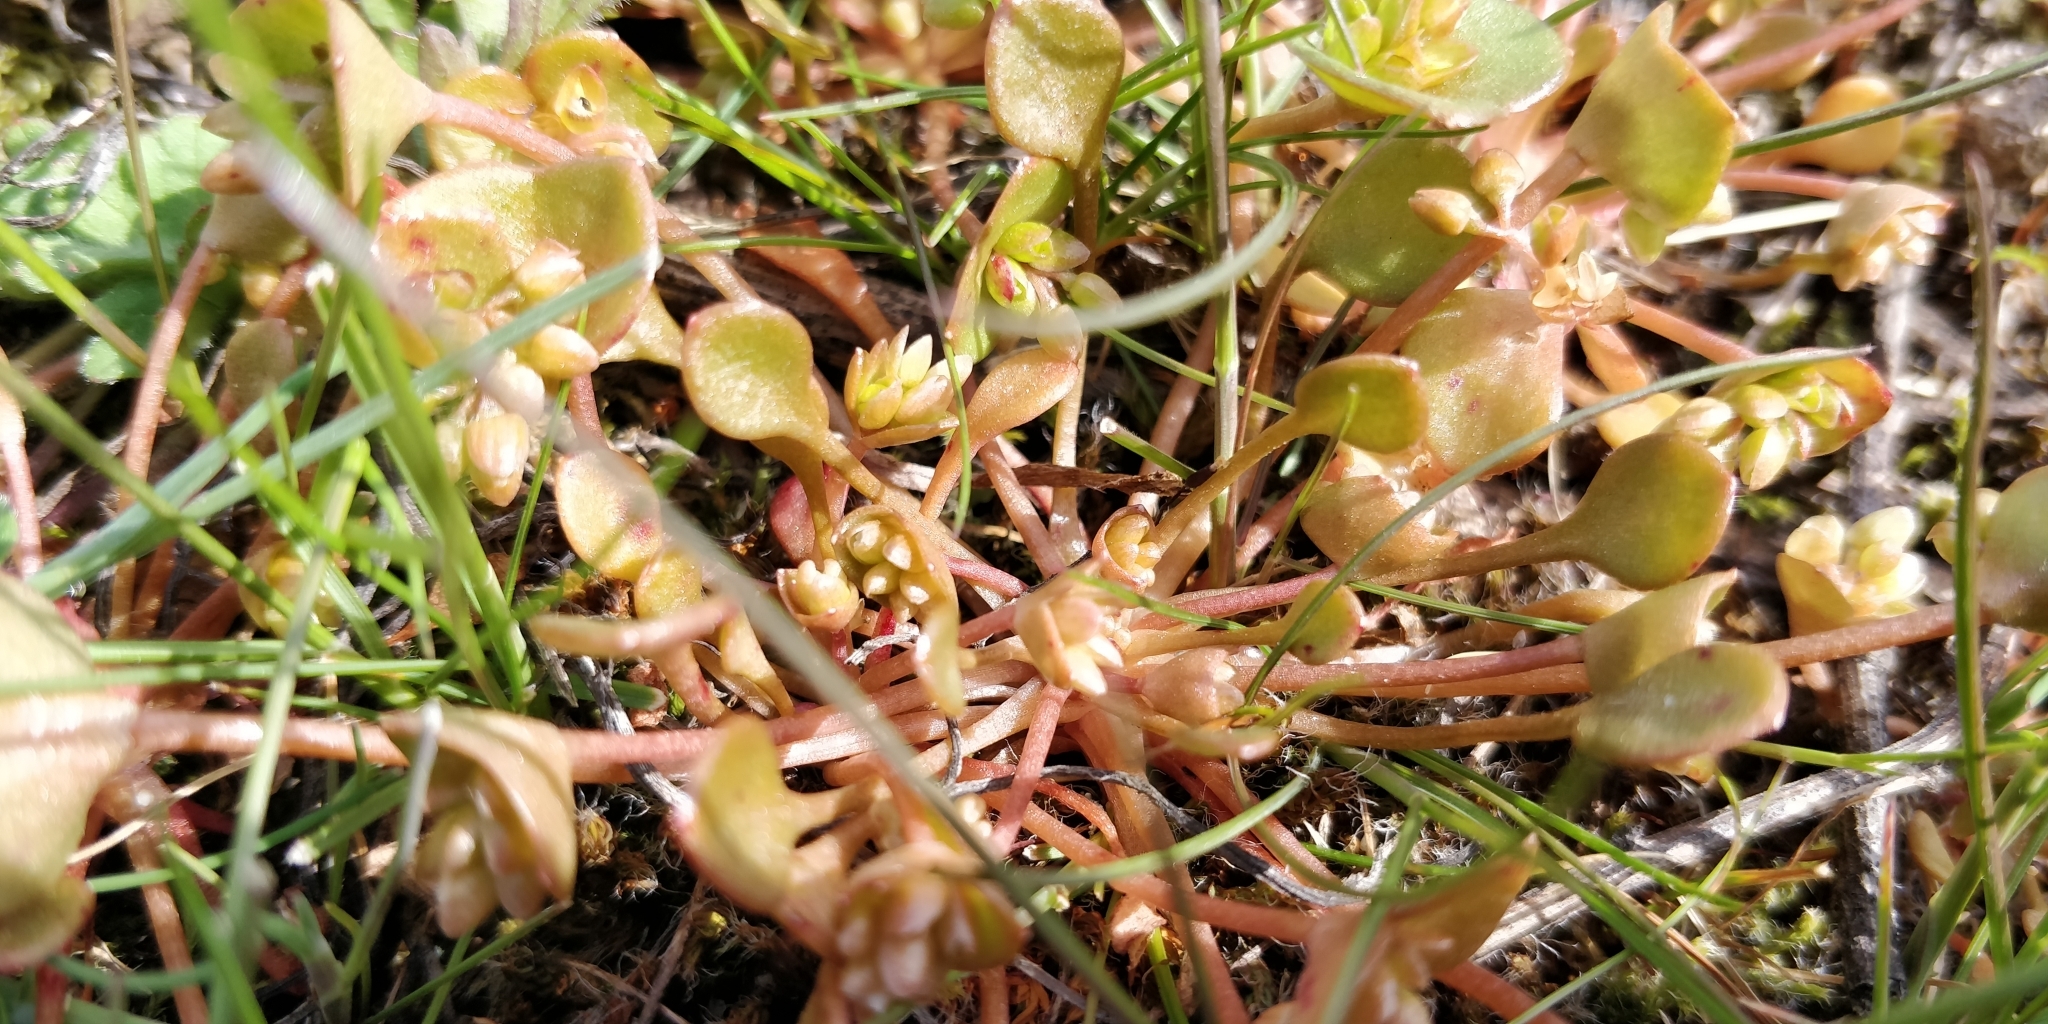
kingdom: Plantae
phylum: Tracheophyta
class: Magnoliopsida
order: Caryophyllales
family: Montiaceae
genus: Claytonia
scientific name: Claytonia rubra
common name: Erubescent miner's-lettuce
